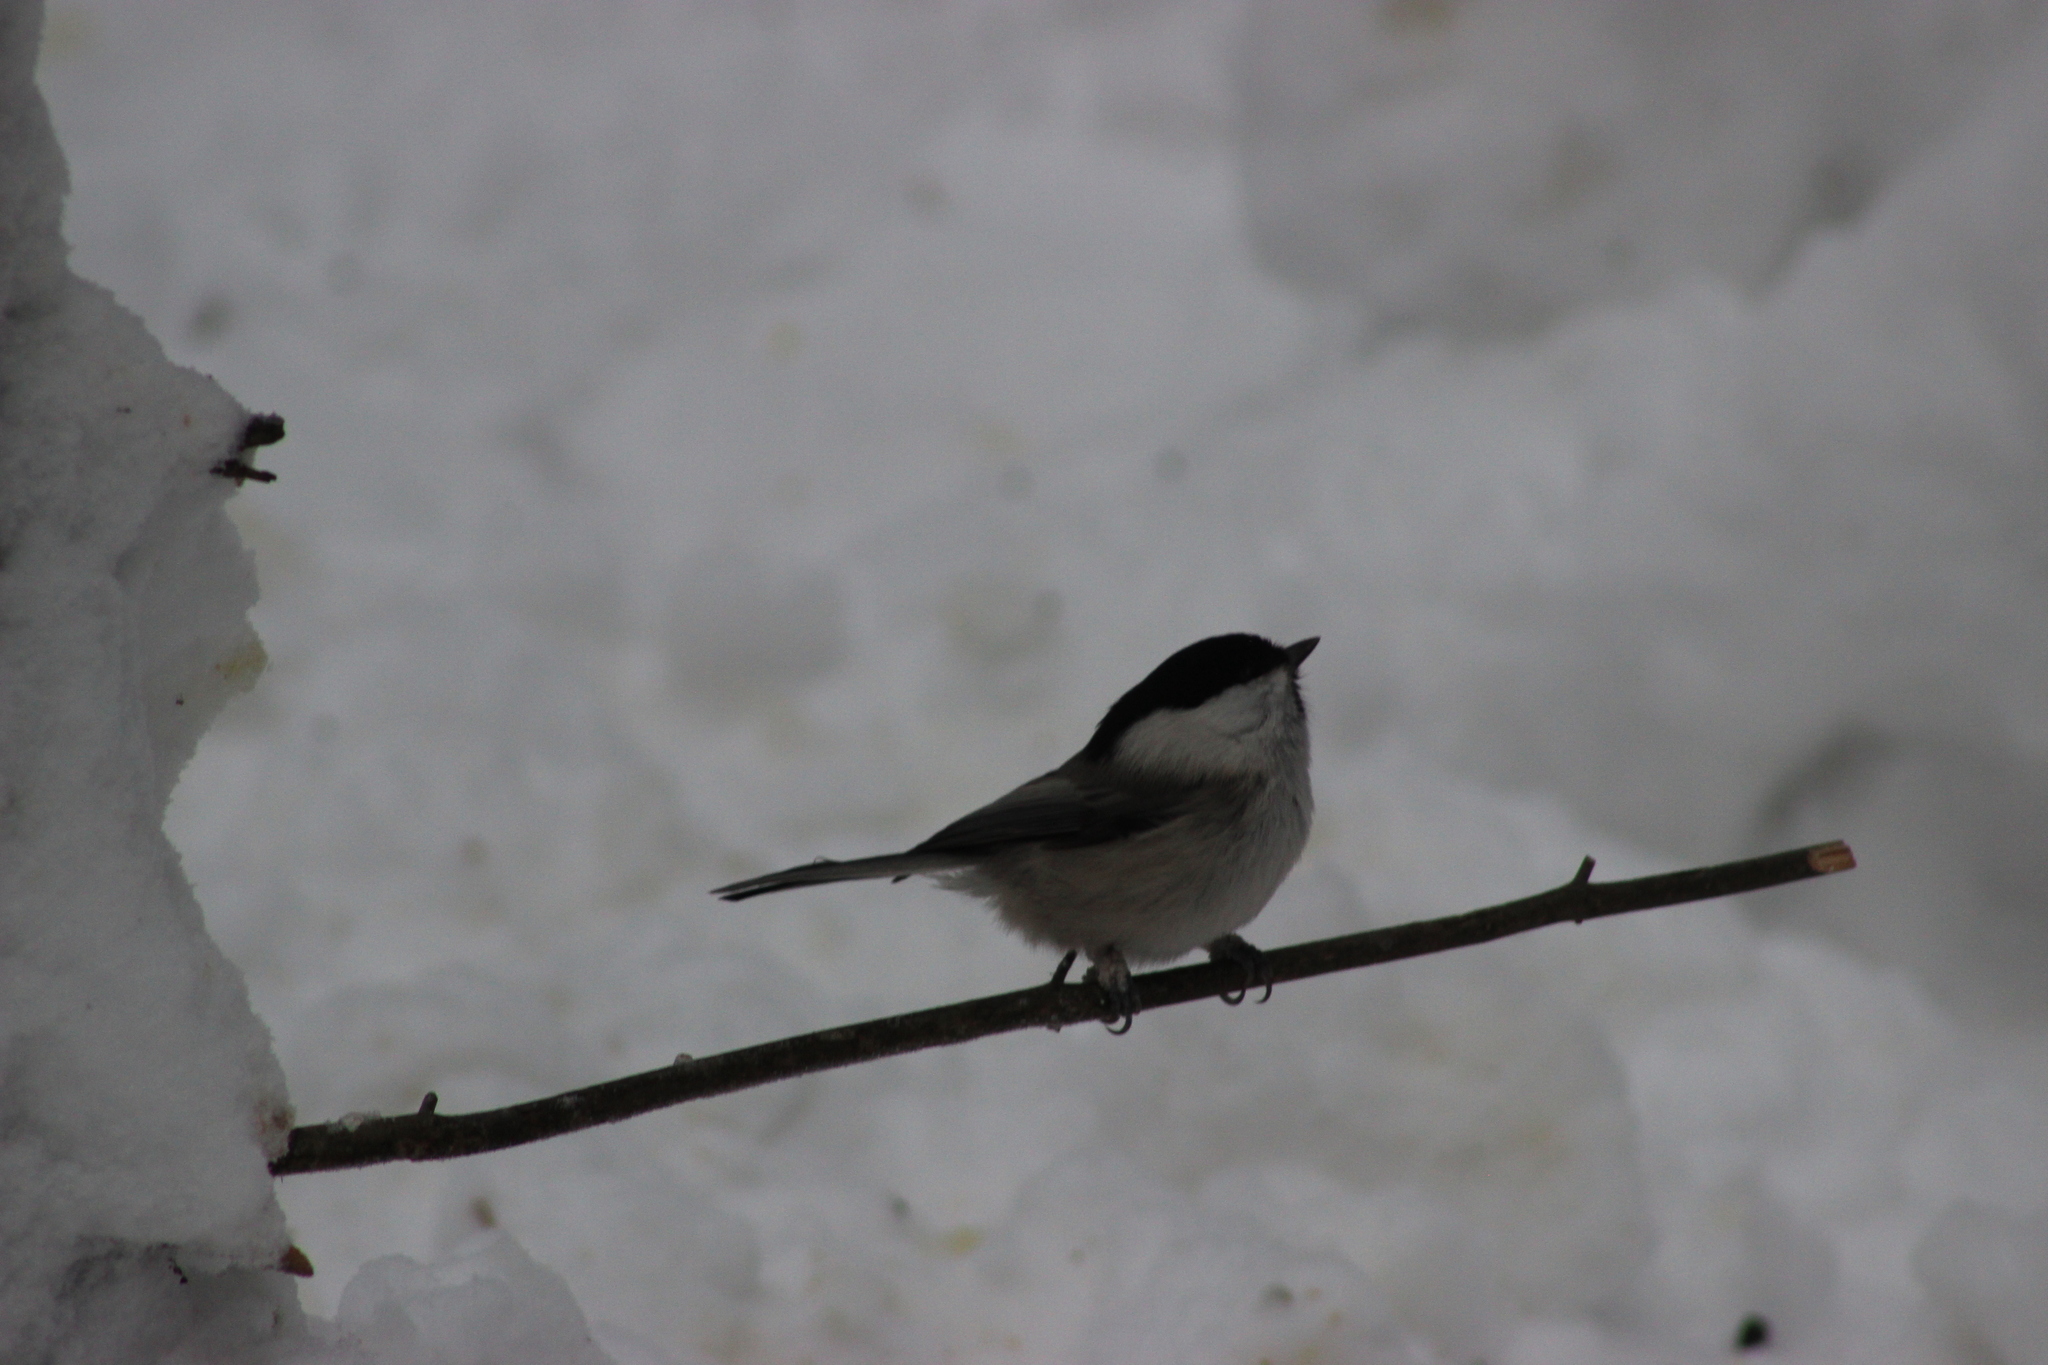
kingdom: Animalia
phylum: Chordata
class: Aves
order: Passeriformes
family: Paridae
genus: Poecile
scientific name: Poecile montanus
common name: Willow tit
